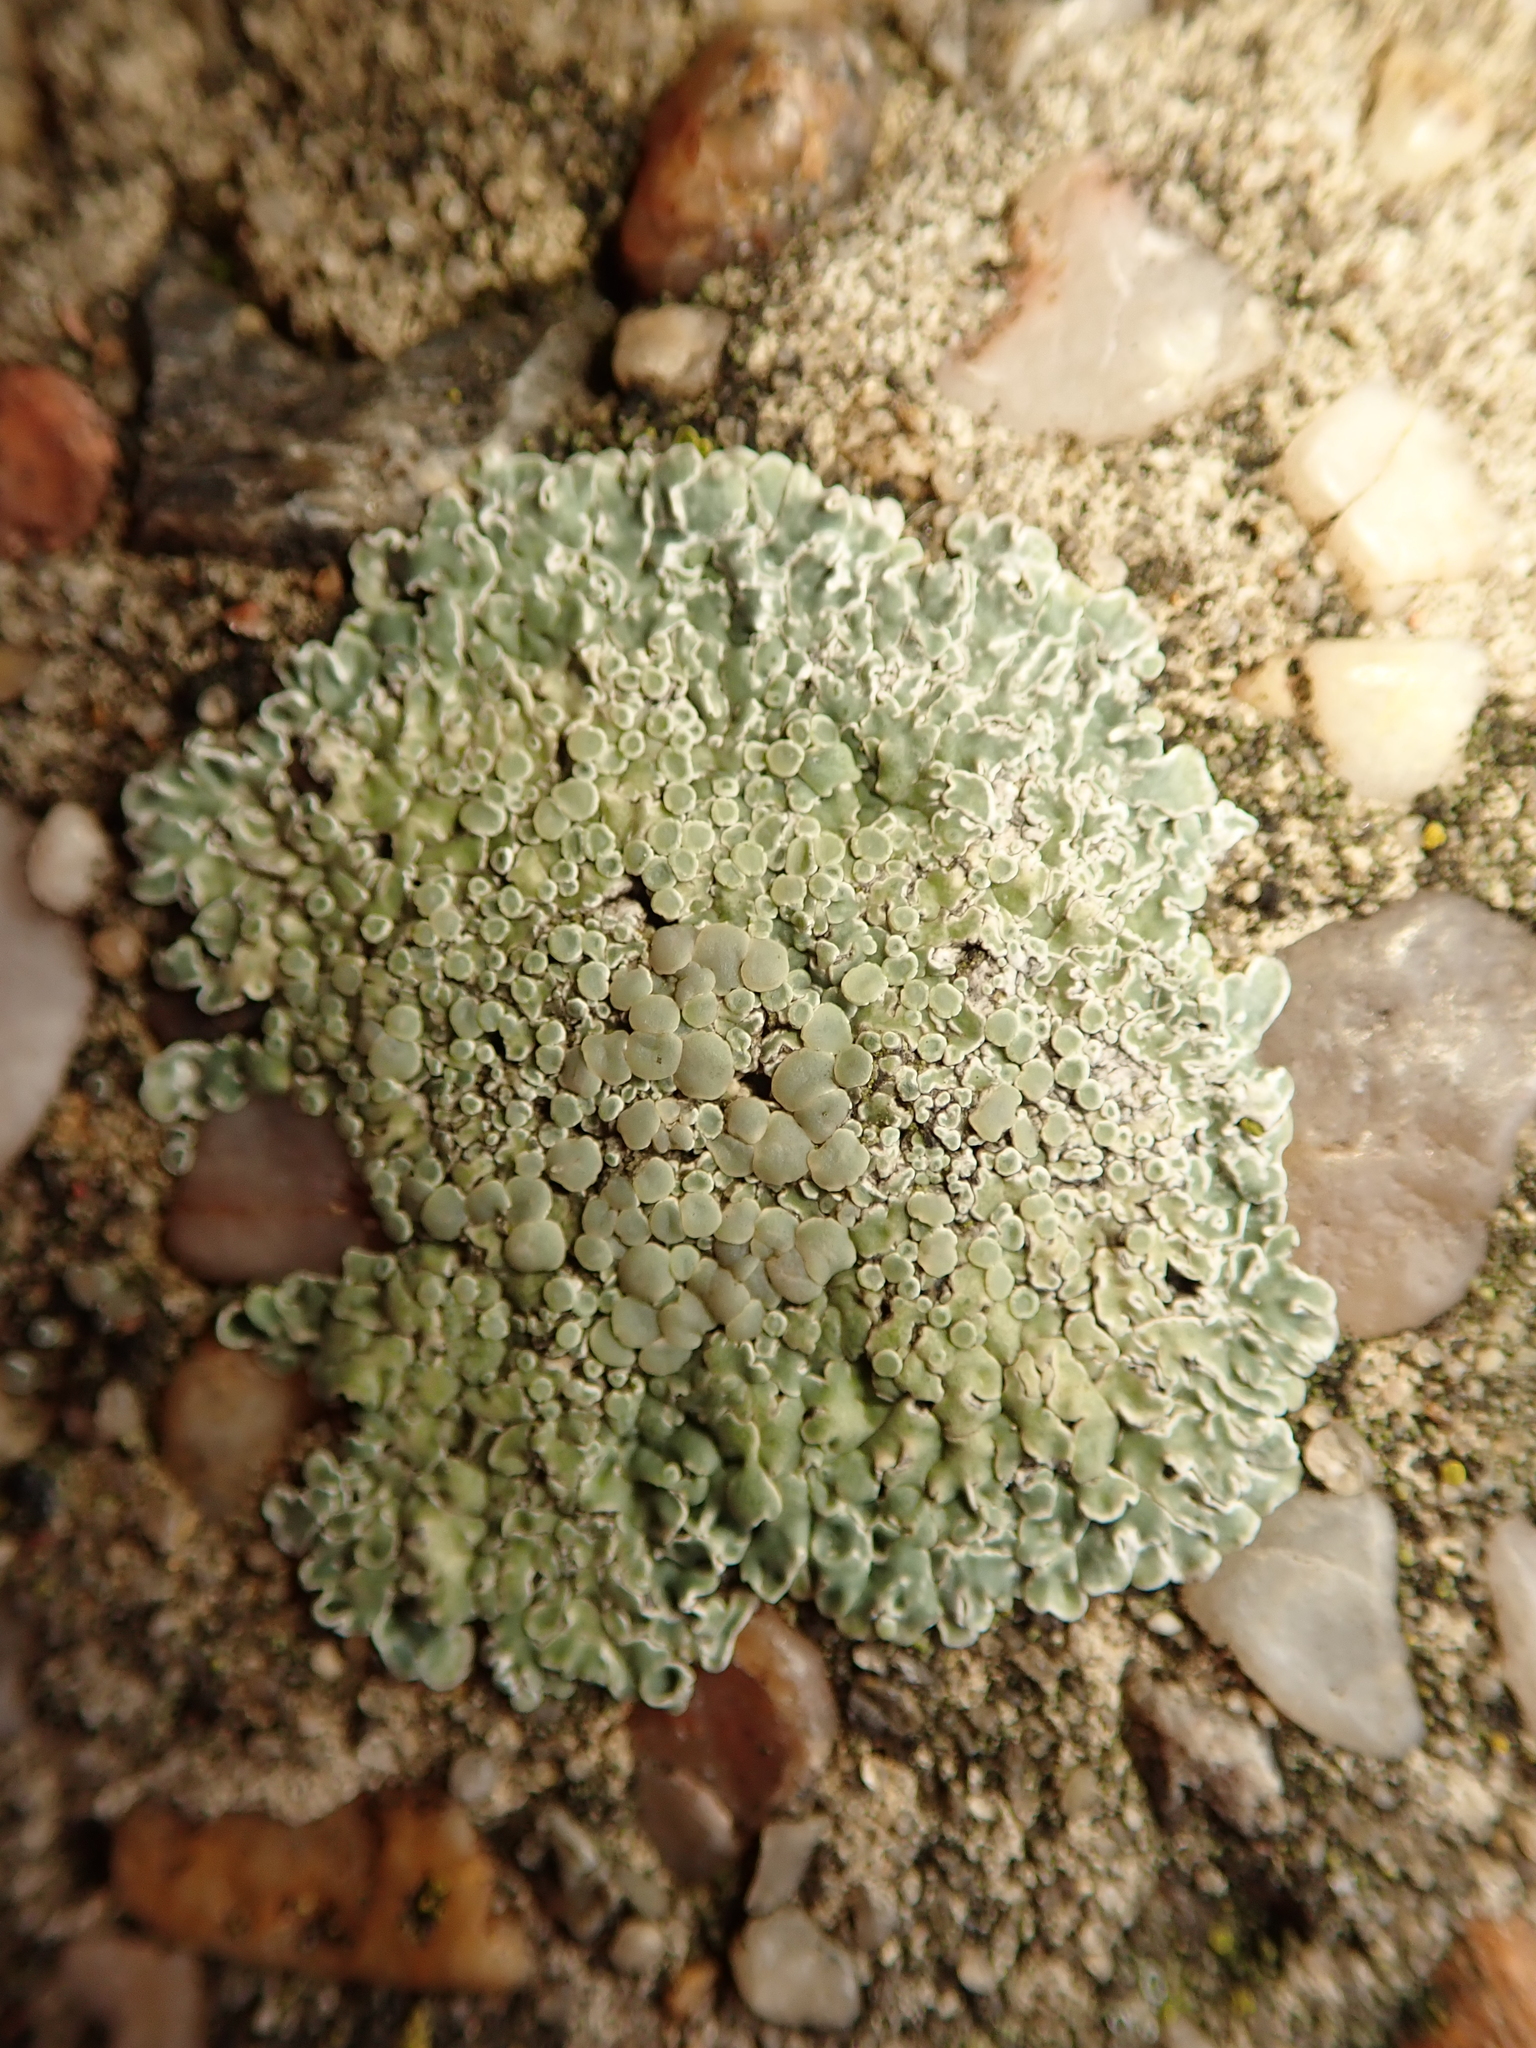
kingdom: Fungi
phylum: Ascomycota
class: Lecanoromycetes
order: Lecanorales
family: Lecanoraceae
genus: Protoparmeliopsis
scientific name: Protoparmeliopsis muralis
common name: Stonewall rim lichen
